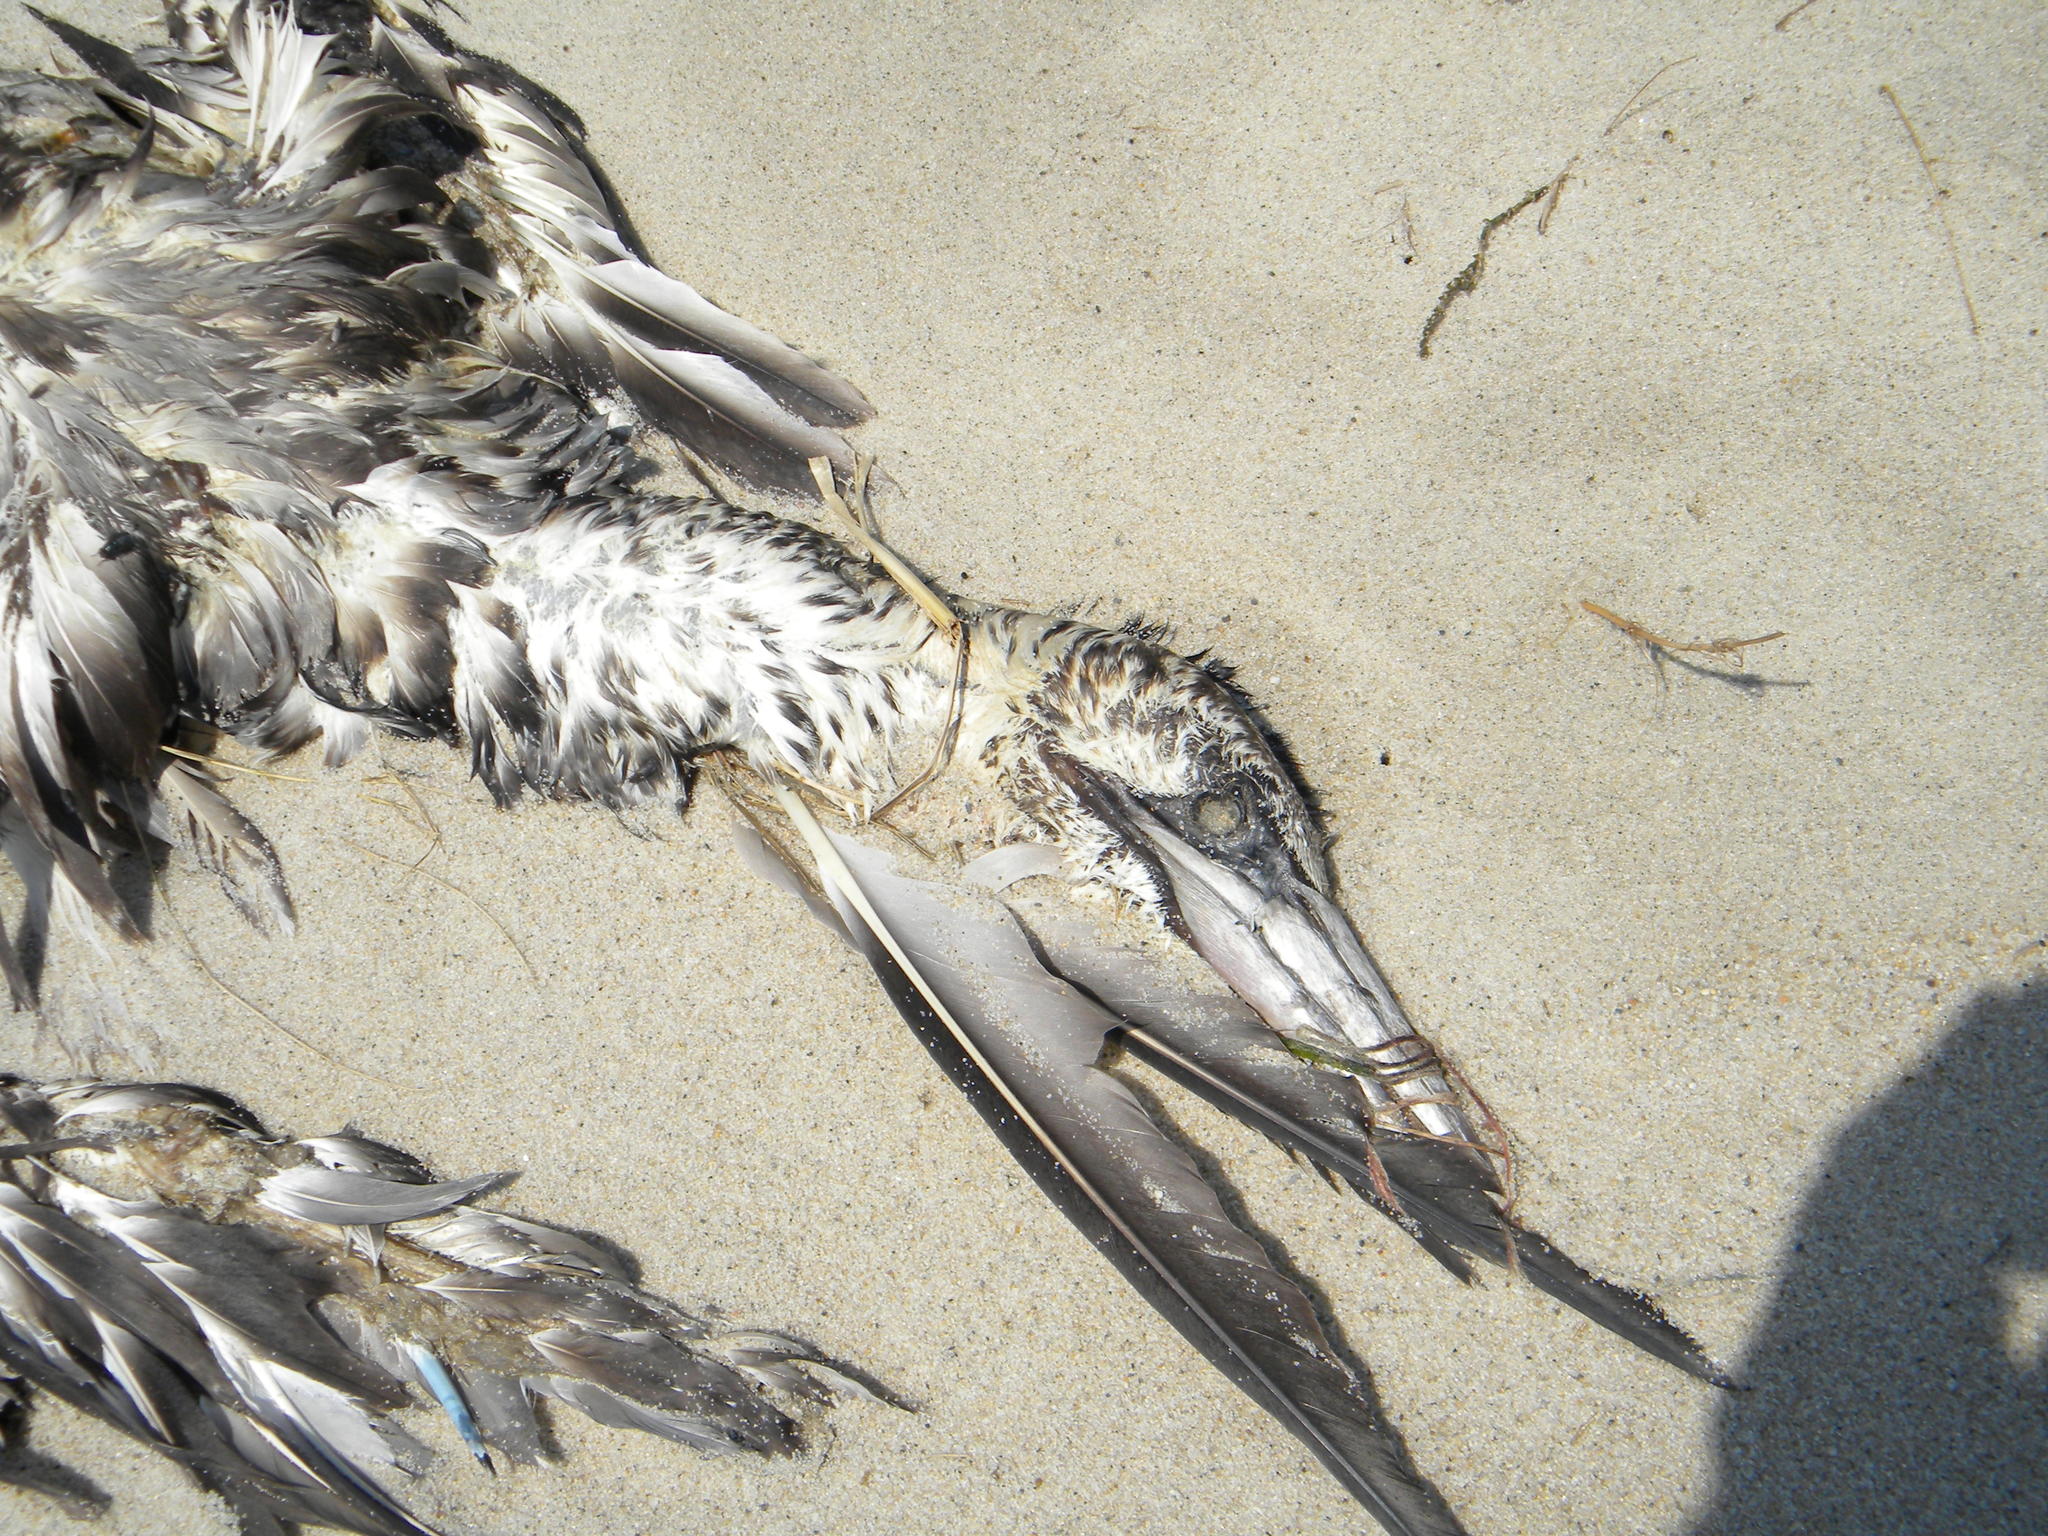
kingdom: Animalia
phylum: Chordata
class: Aves
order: Suliformes
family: Sulidae
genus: Morus
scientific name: Morus bassanus
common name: Northern gannet
